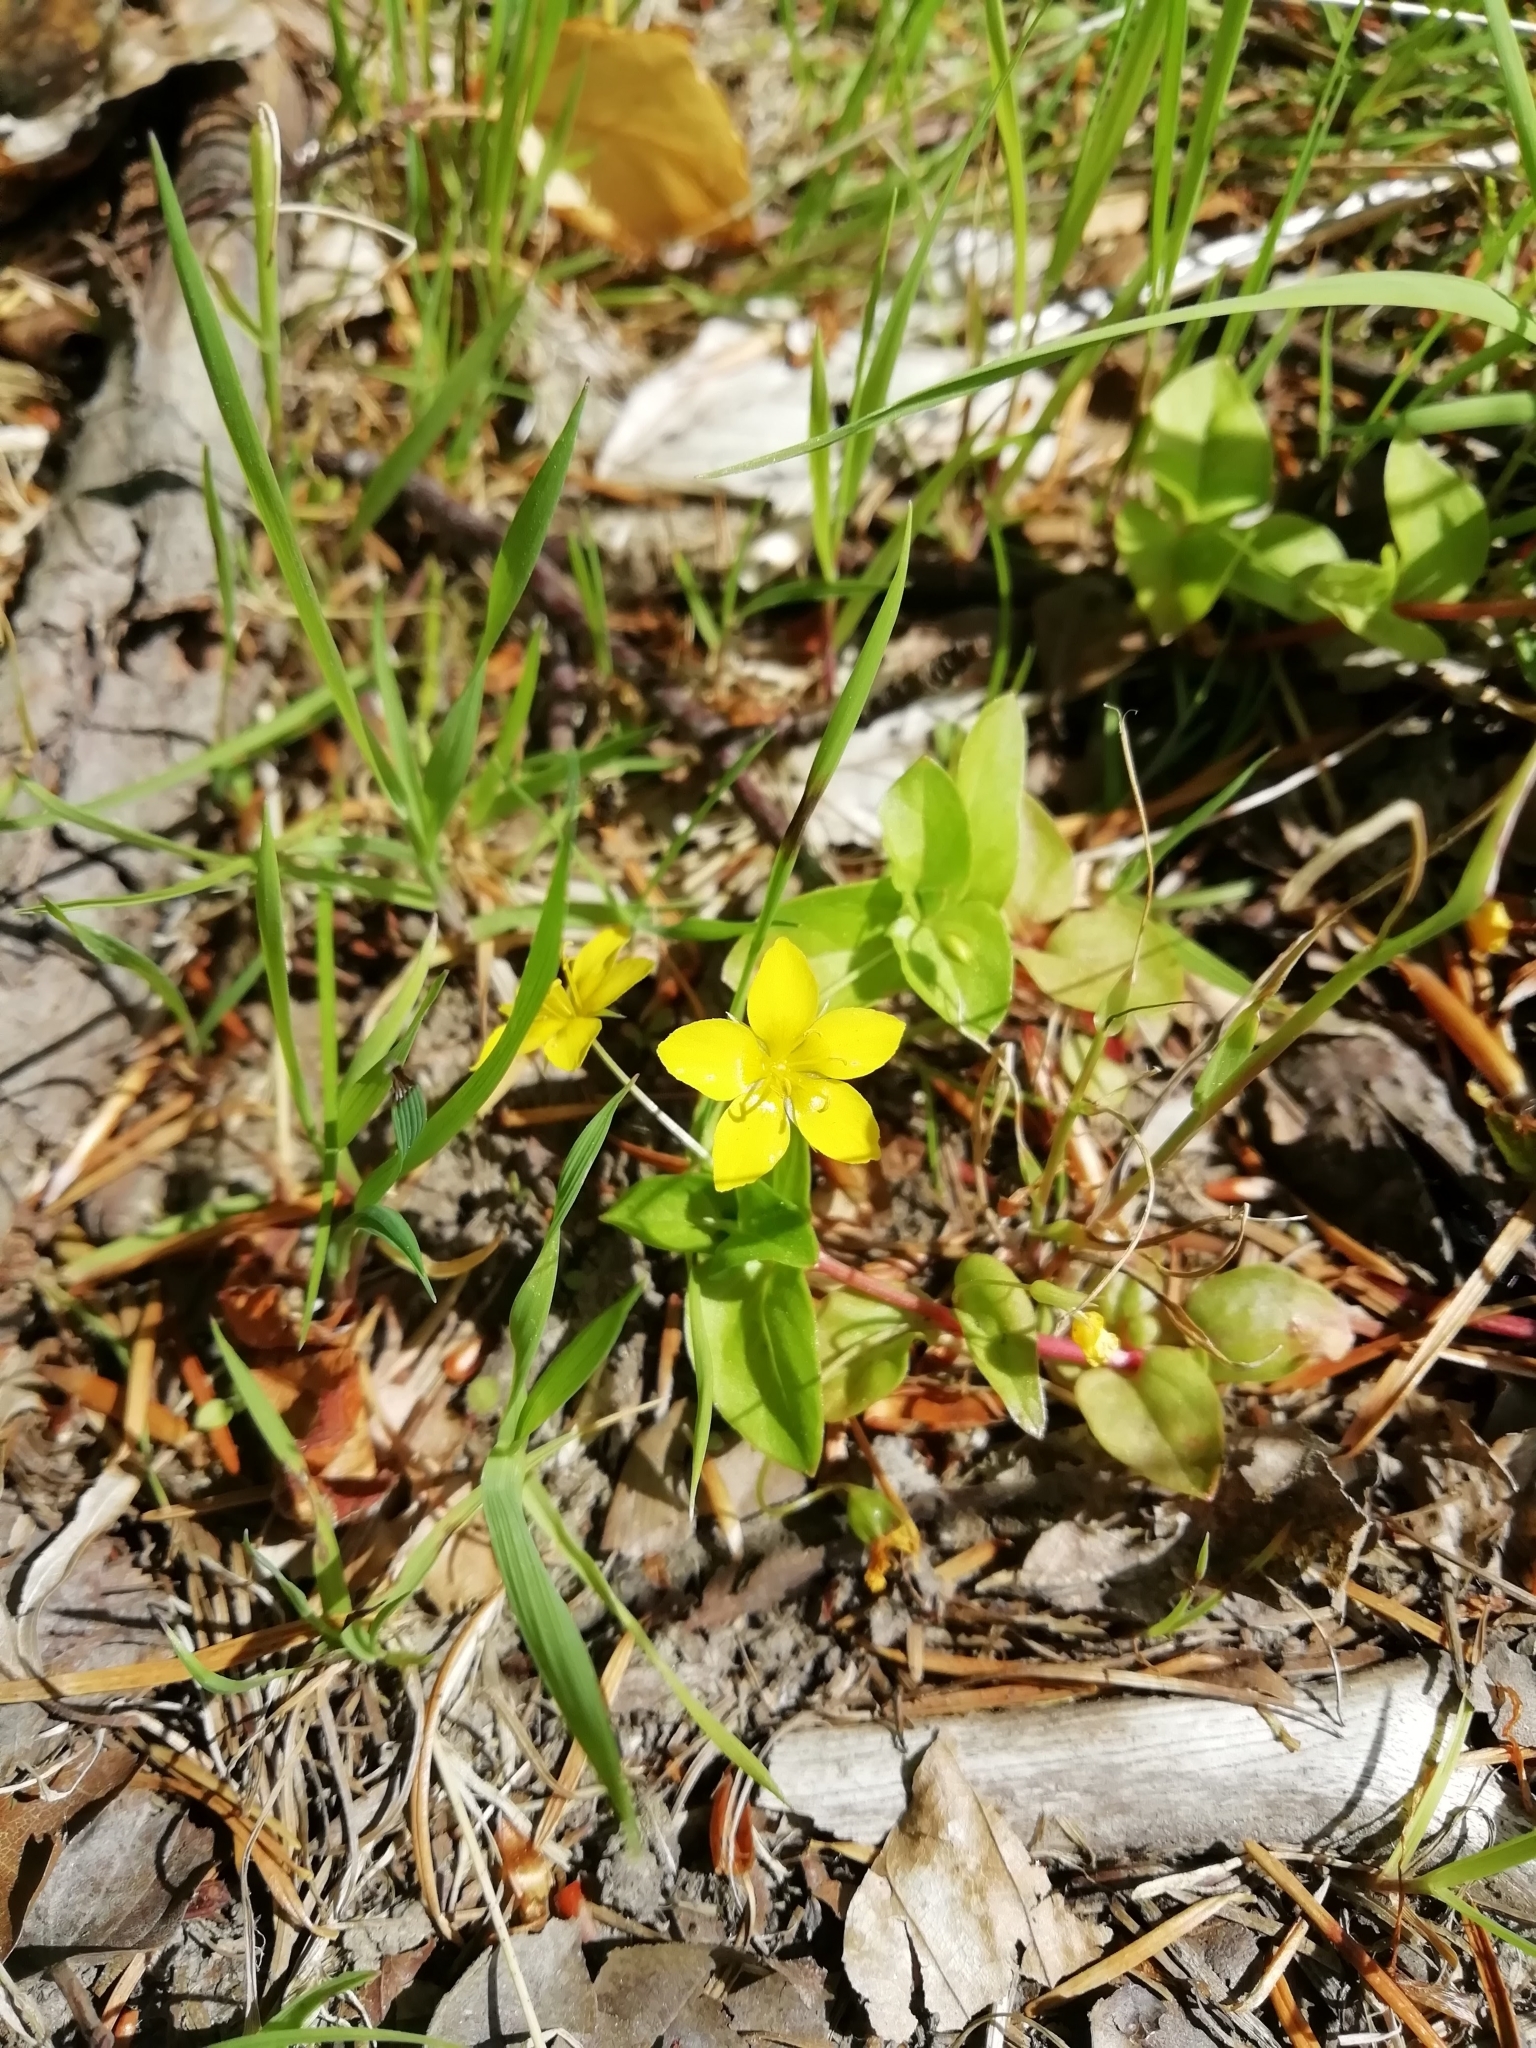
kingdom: Plantae
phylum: Tracheophyta
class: Magnoliopsida
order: Ericales
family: Primulaceae
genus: Lysimachia
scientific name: Lysimachia nemorum
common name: Yellow pimpernel
